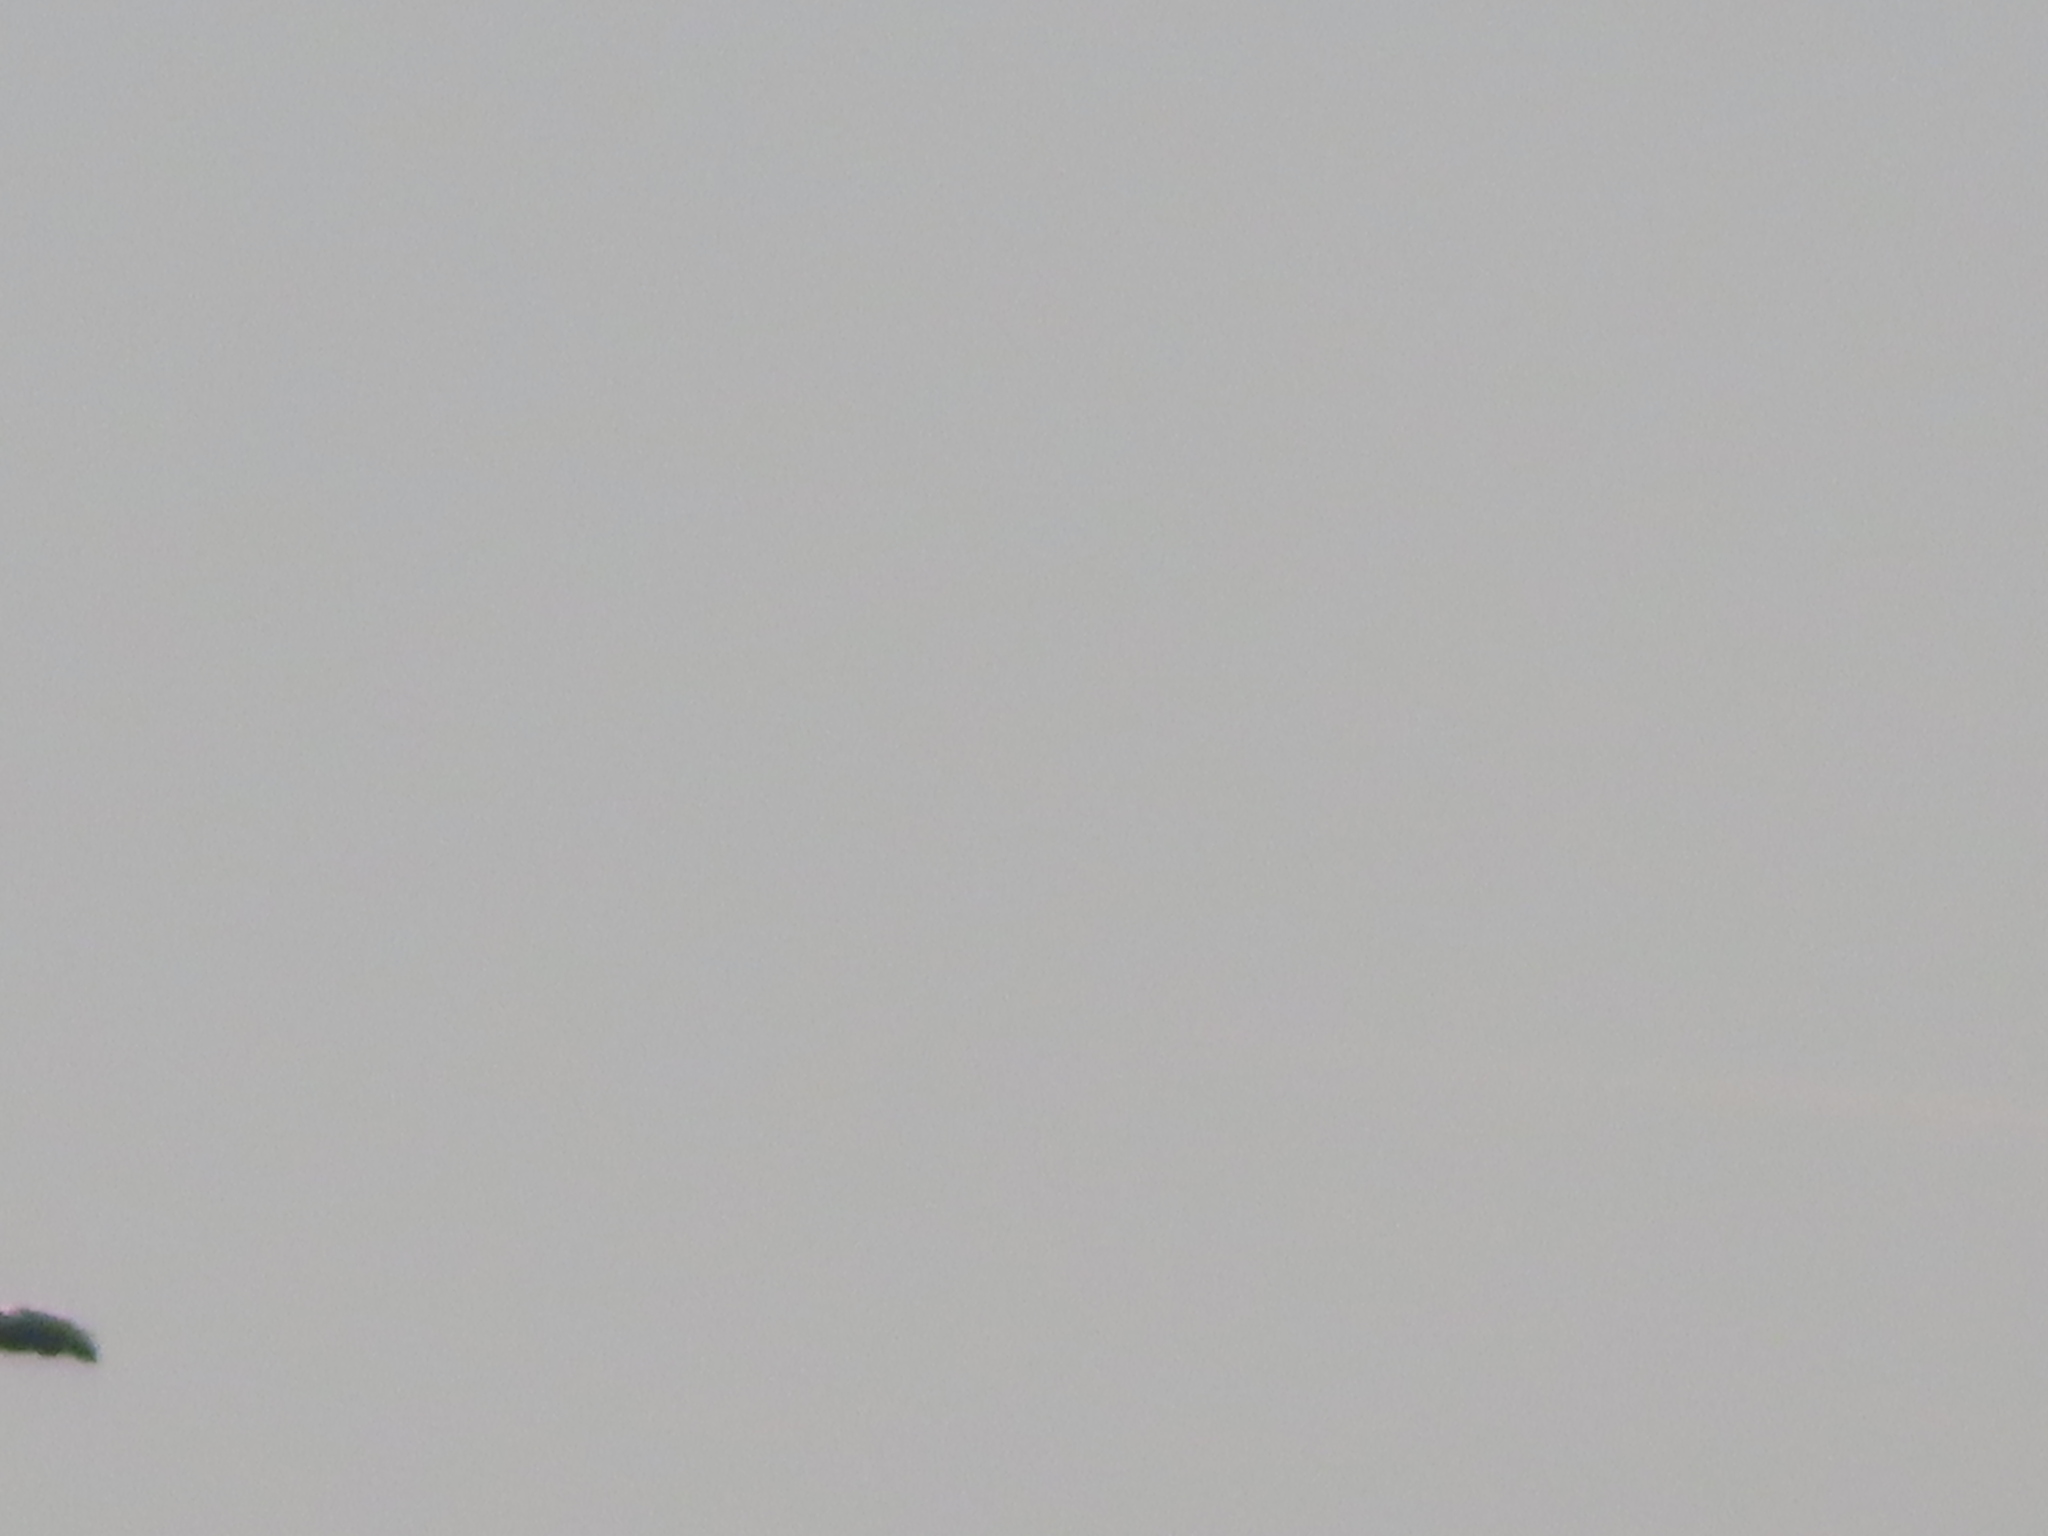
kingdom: Animalia
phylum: Chordata
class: Aves
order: Anseriformes
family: Anatidae
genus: Anser
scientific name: Anser caerulescens
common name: Snow goose
